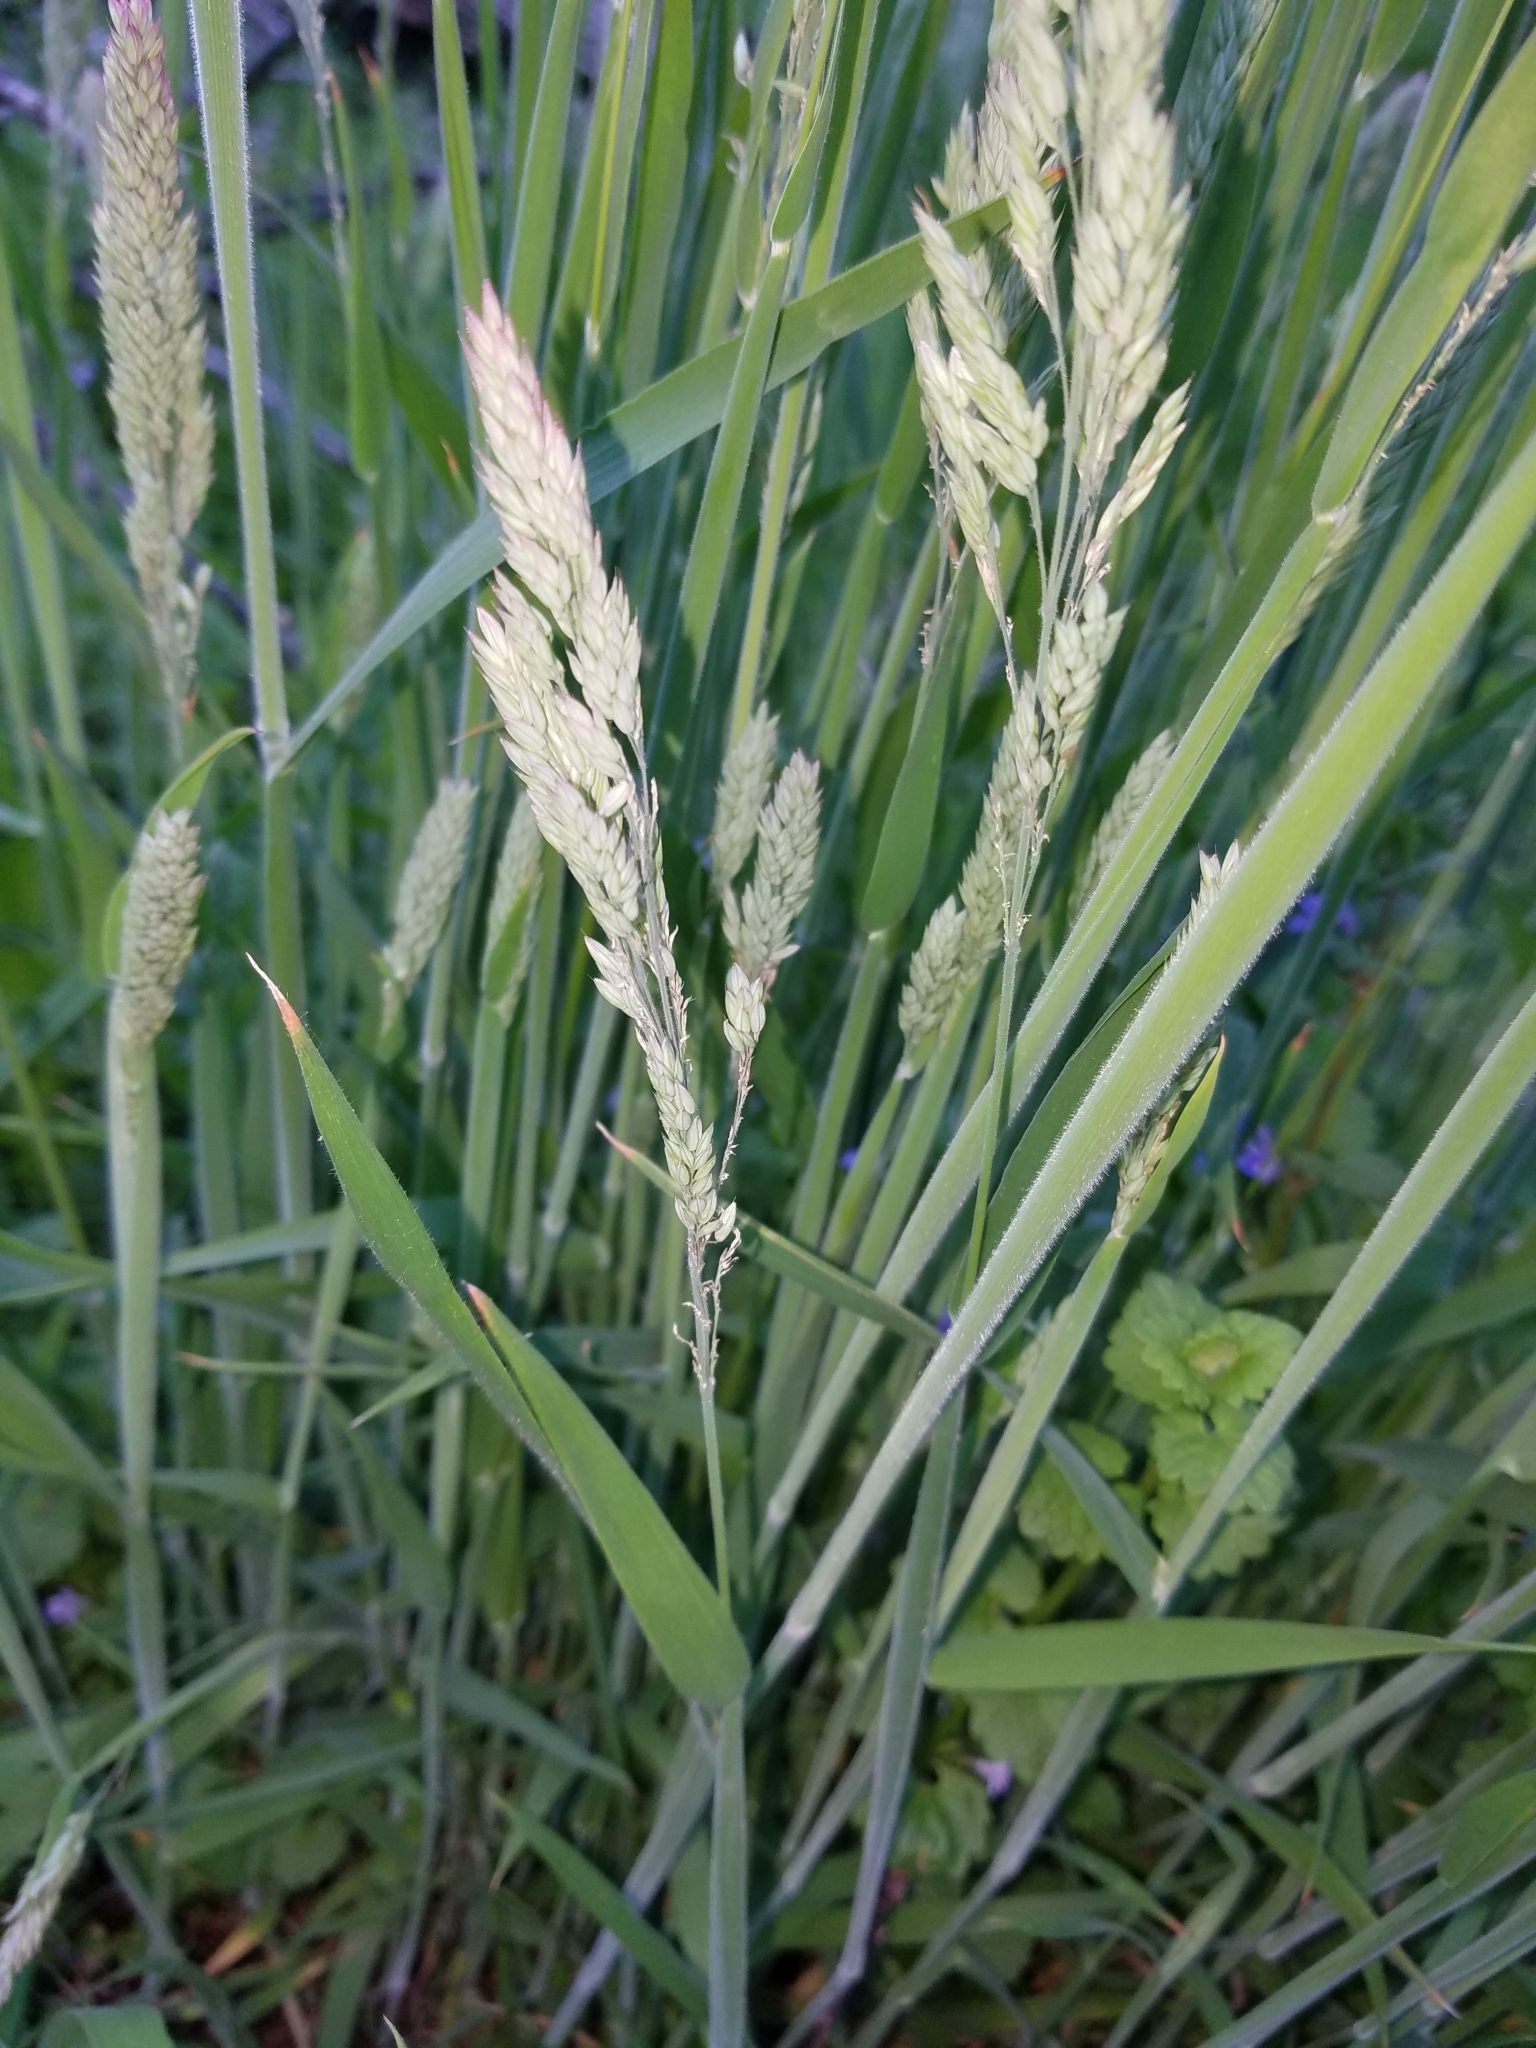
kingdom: Plantae
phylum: Tracheophyta
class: Liliopsida
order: Poales
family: Poaceae
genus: Holcus
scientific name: Holcus lanatus
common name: Yorkshire-fog
